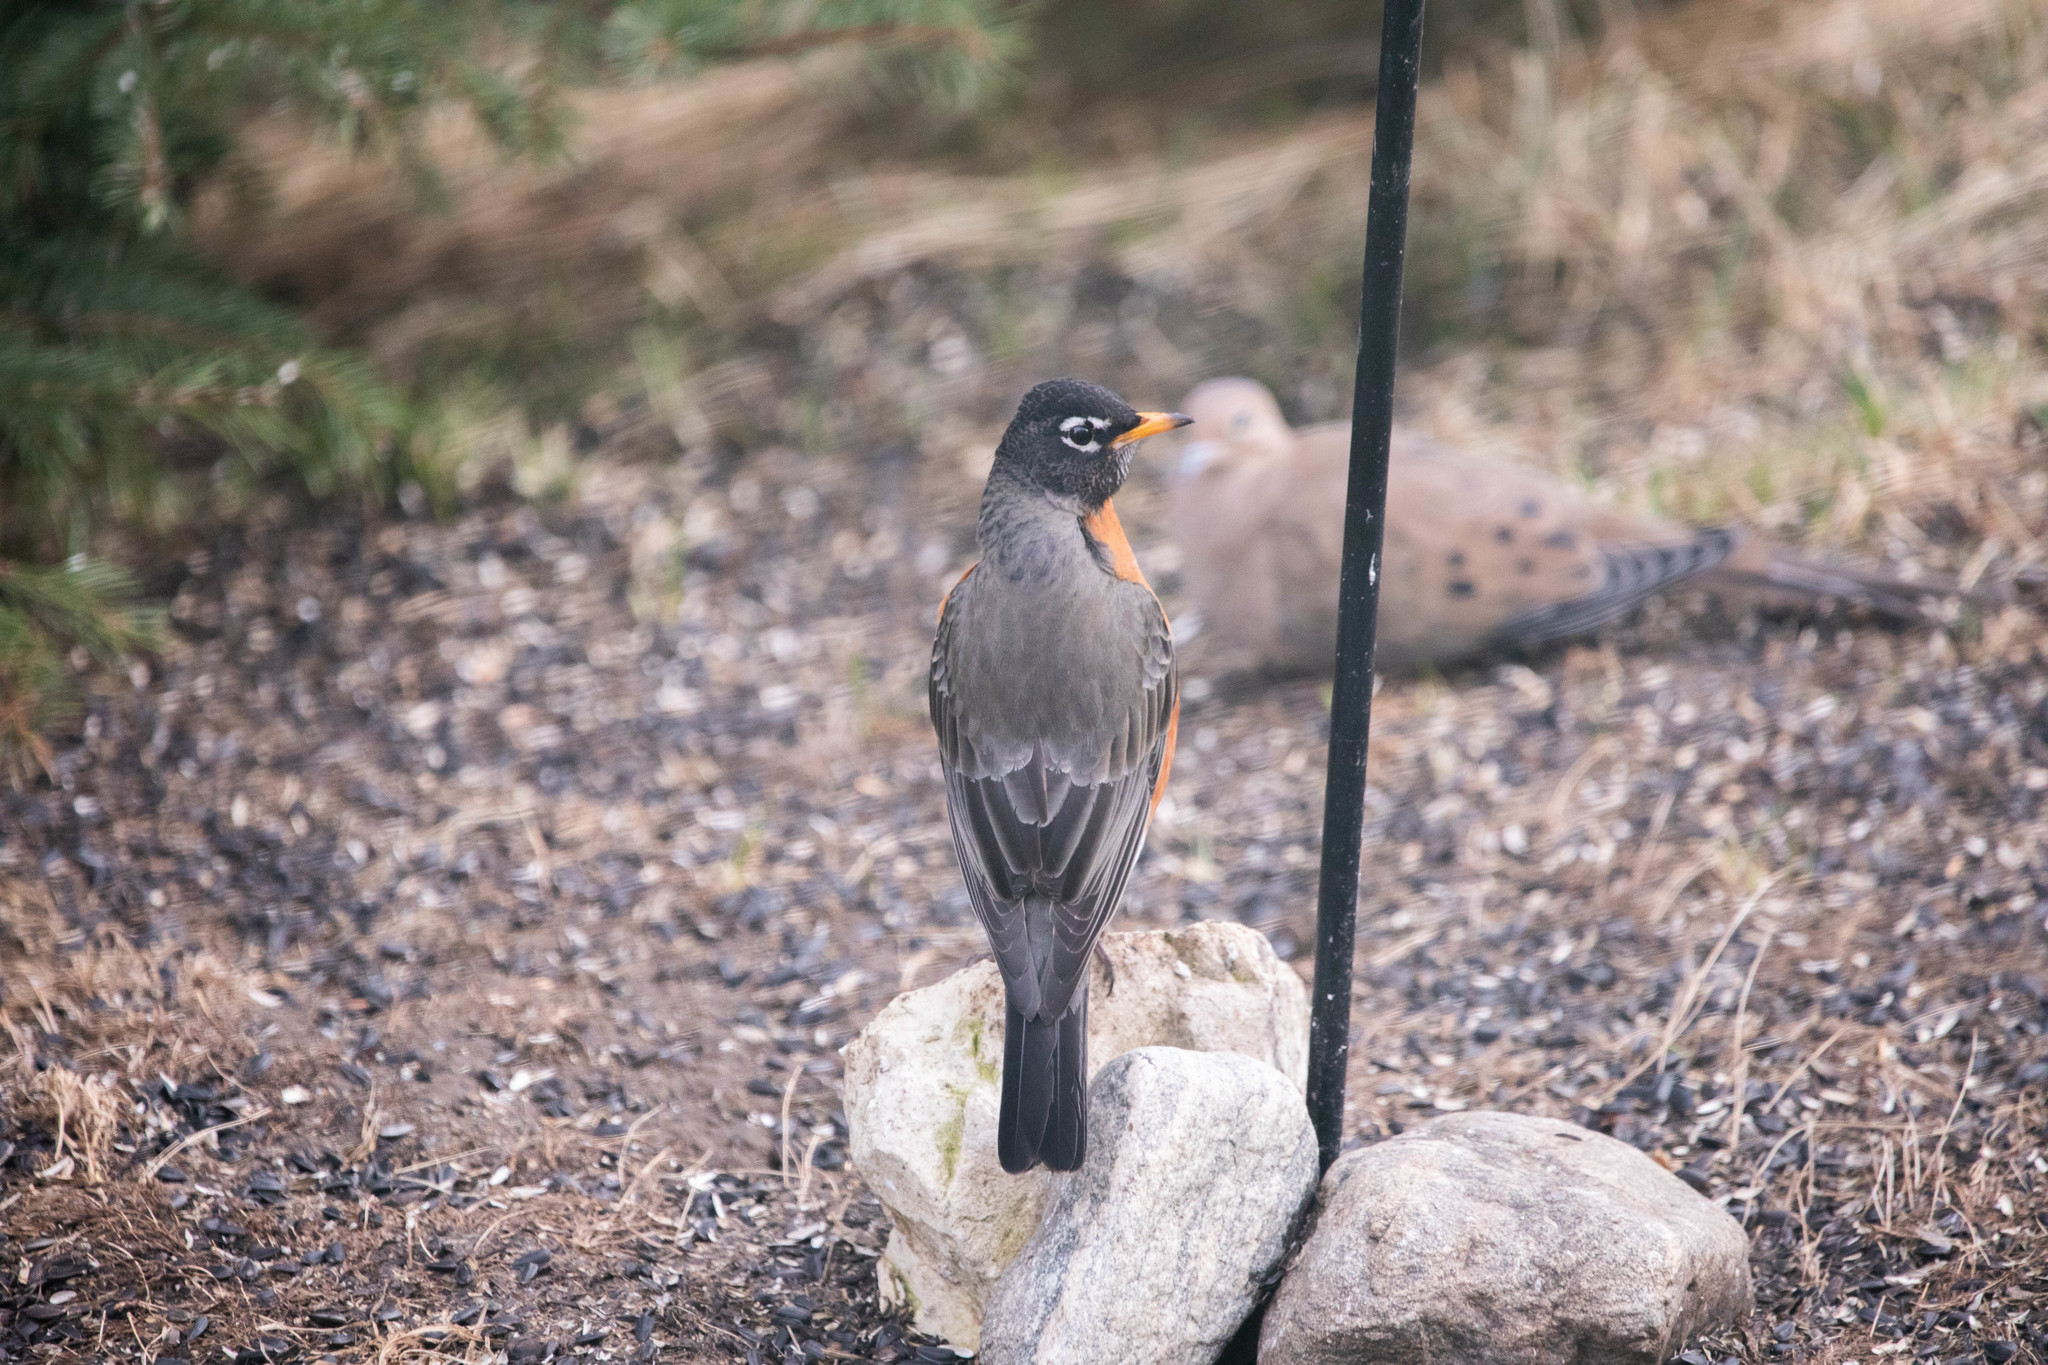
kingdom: Animalia
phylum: Chordata
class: Aves
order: Passeriformes
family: Turdidae
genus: Turdus
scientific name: Turdus migratorius
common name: American robin
